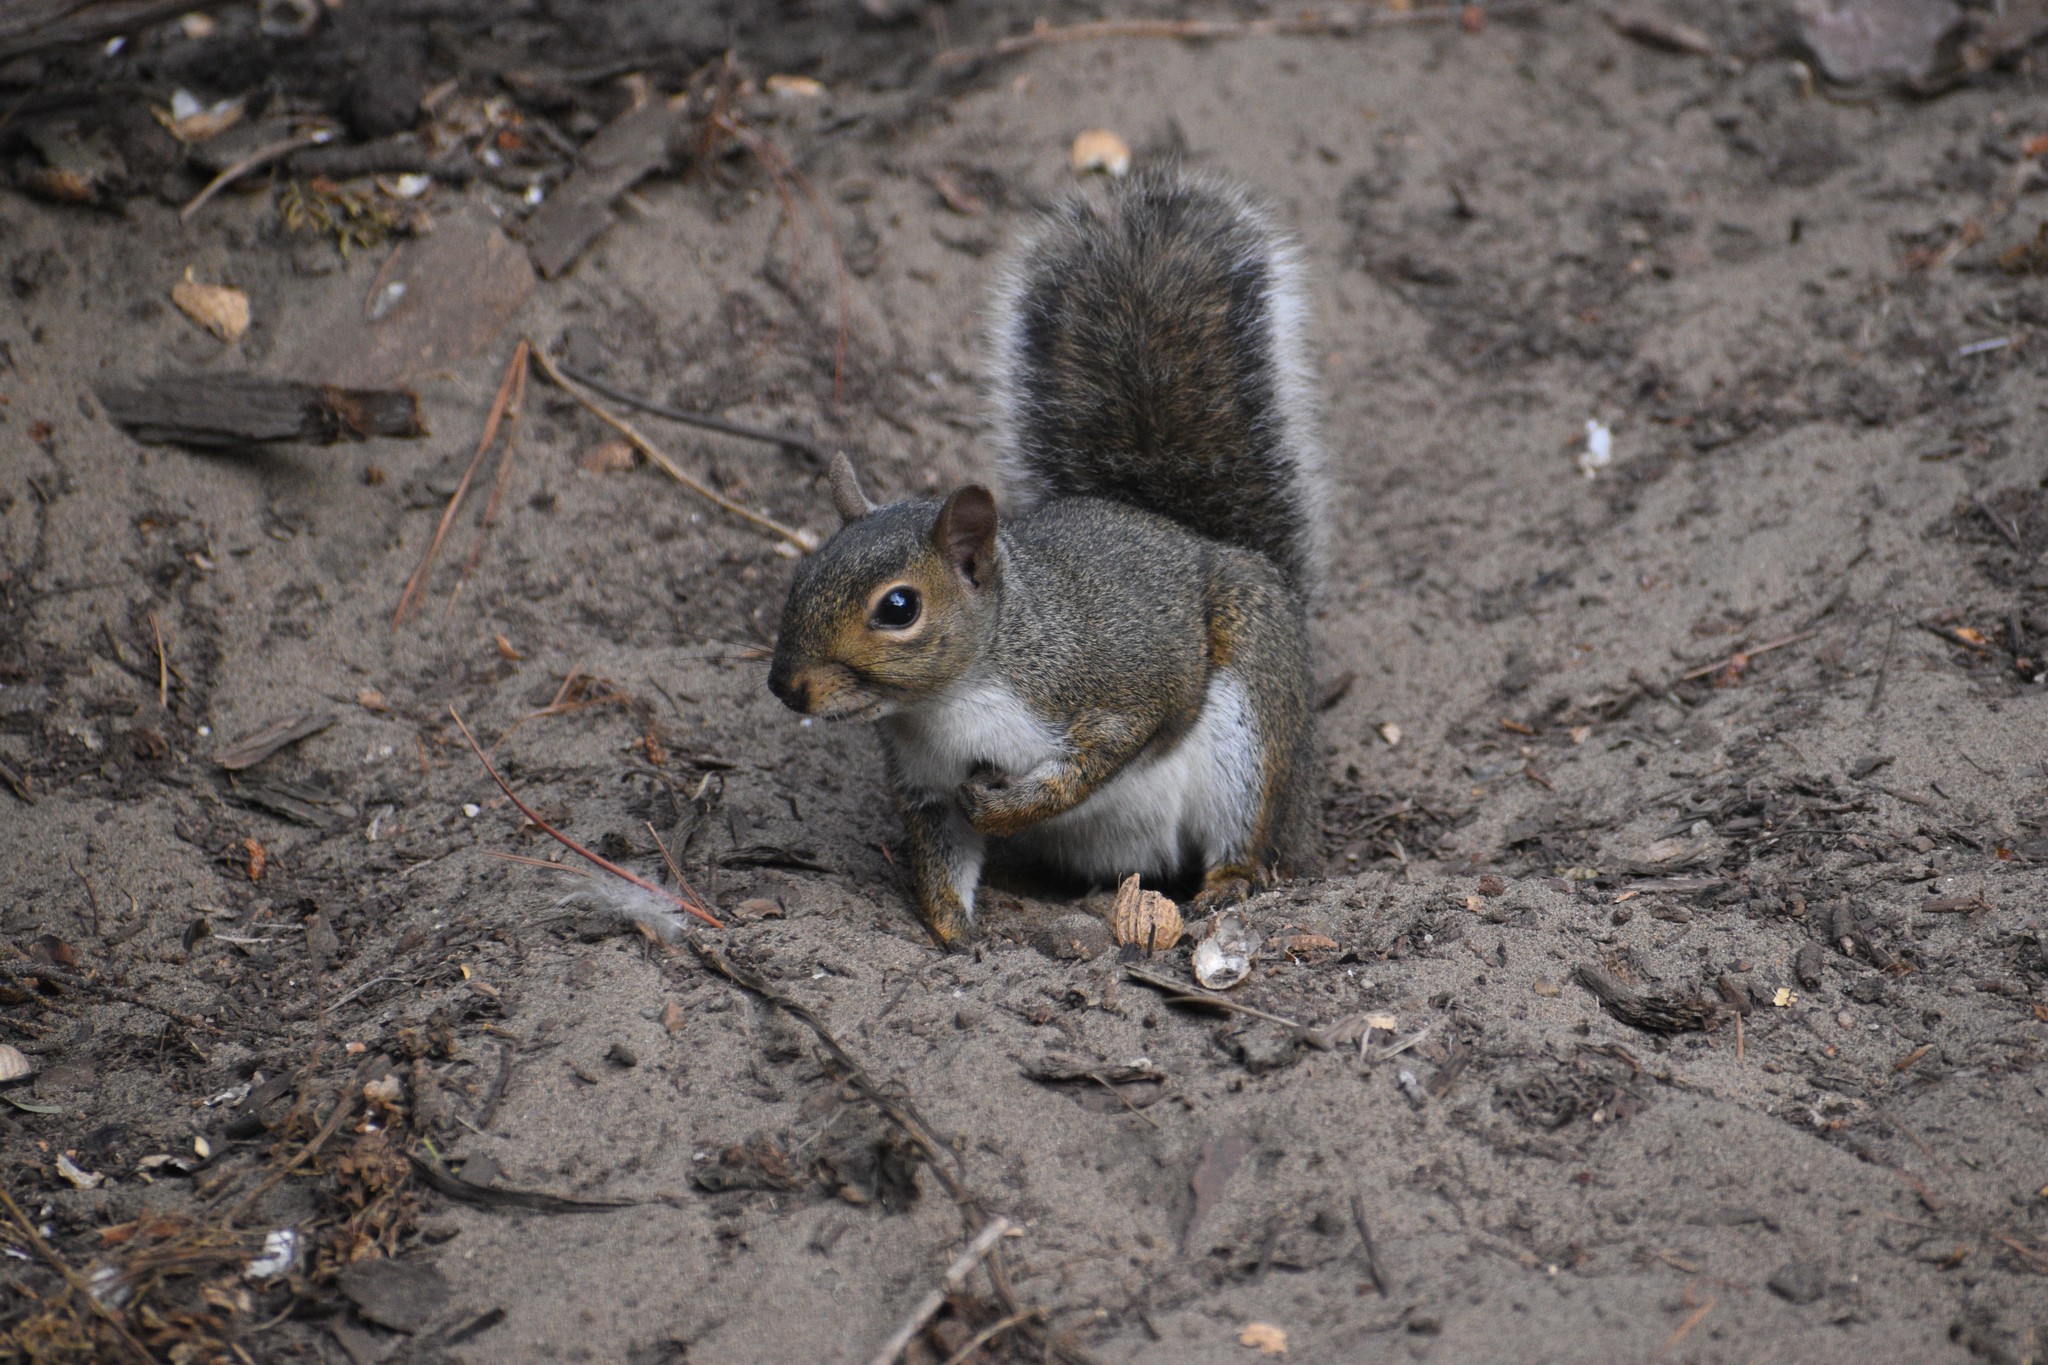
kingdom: Animalia
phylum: Chordata
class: Mammalia
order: Rodentia
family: Sciuridae
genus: Sciurus
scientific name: Sciurus carolinensis
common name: Eastern gray squirrel
